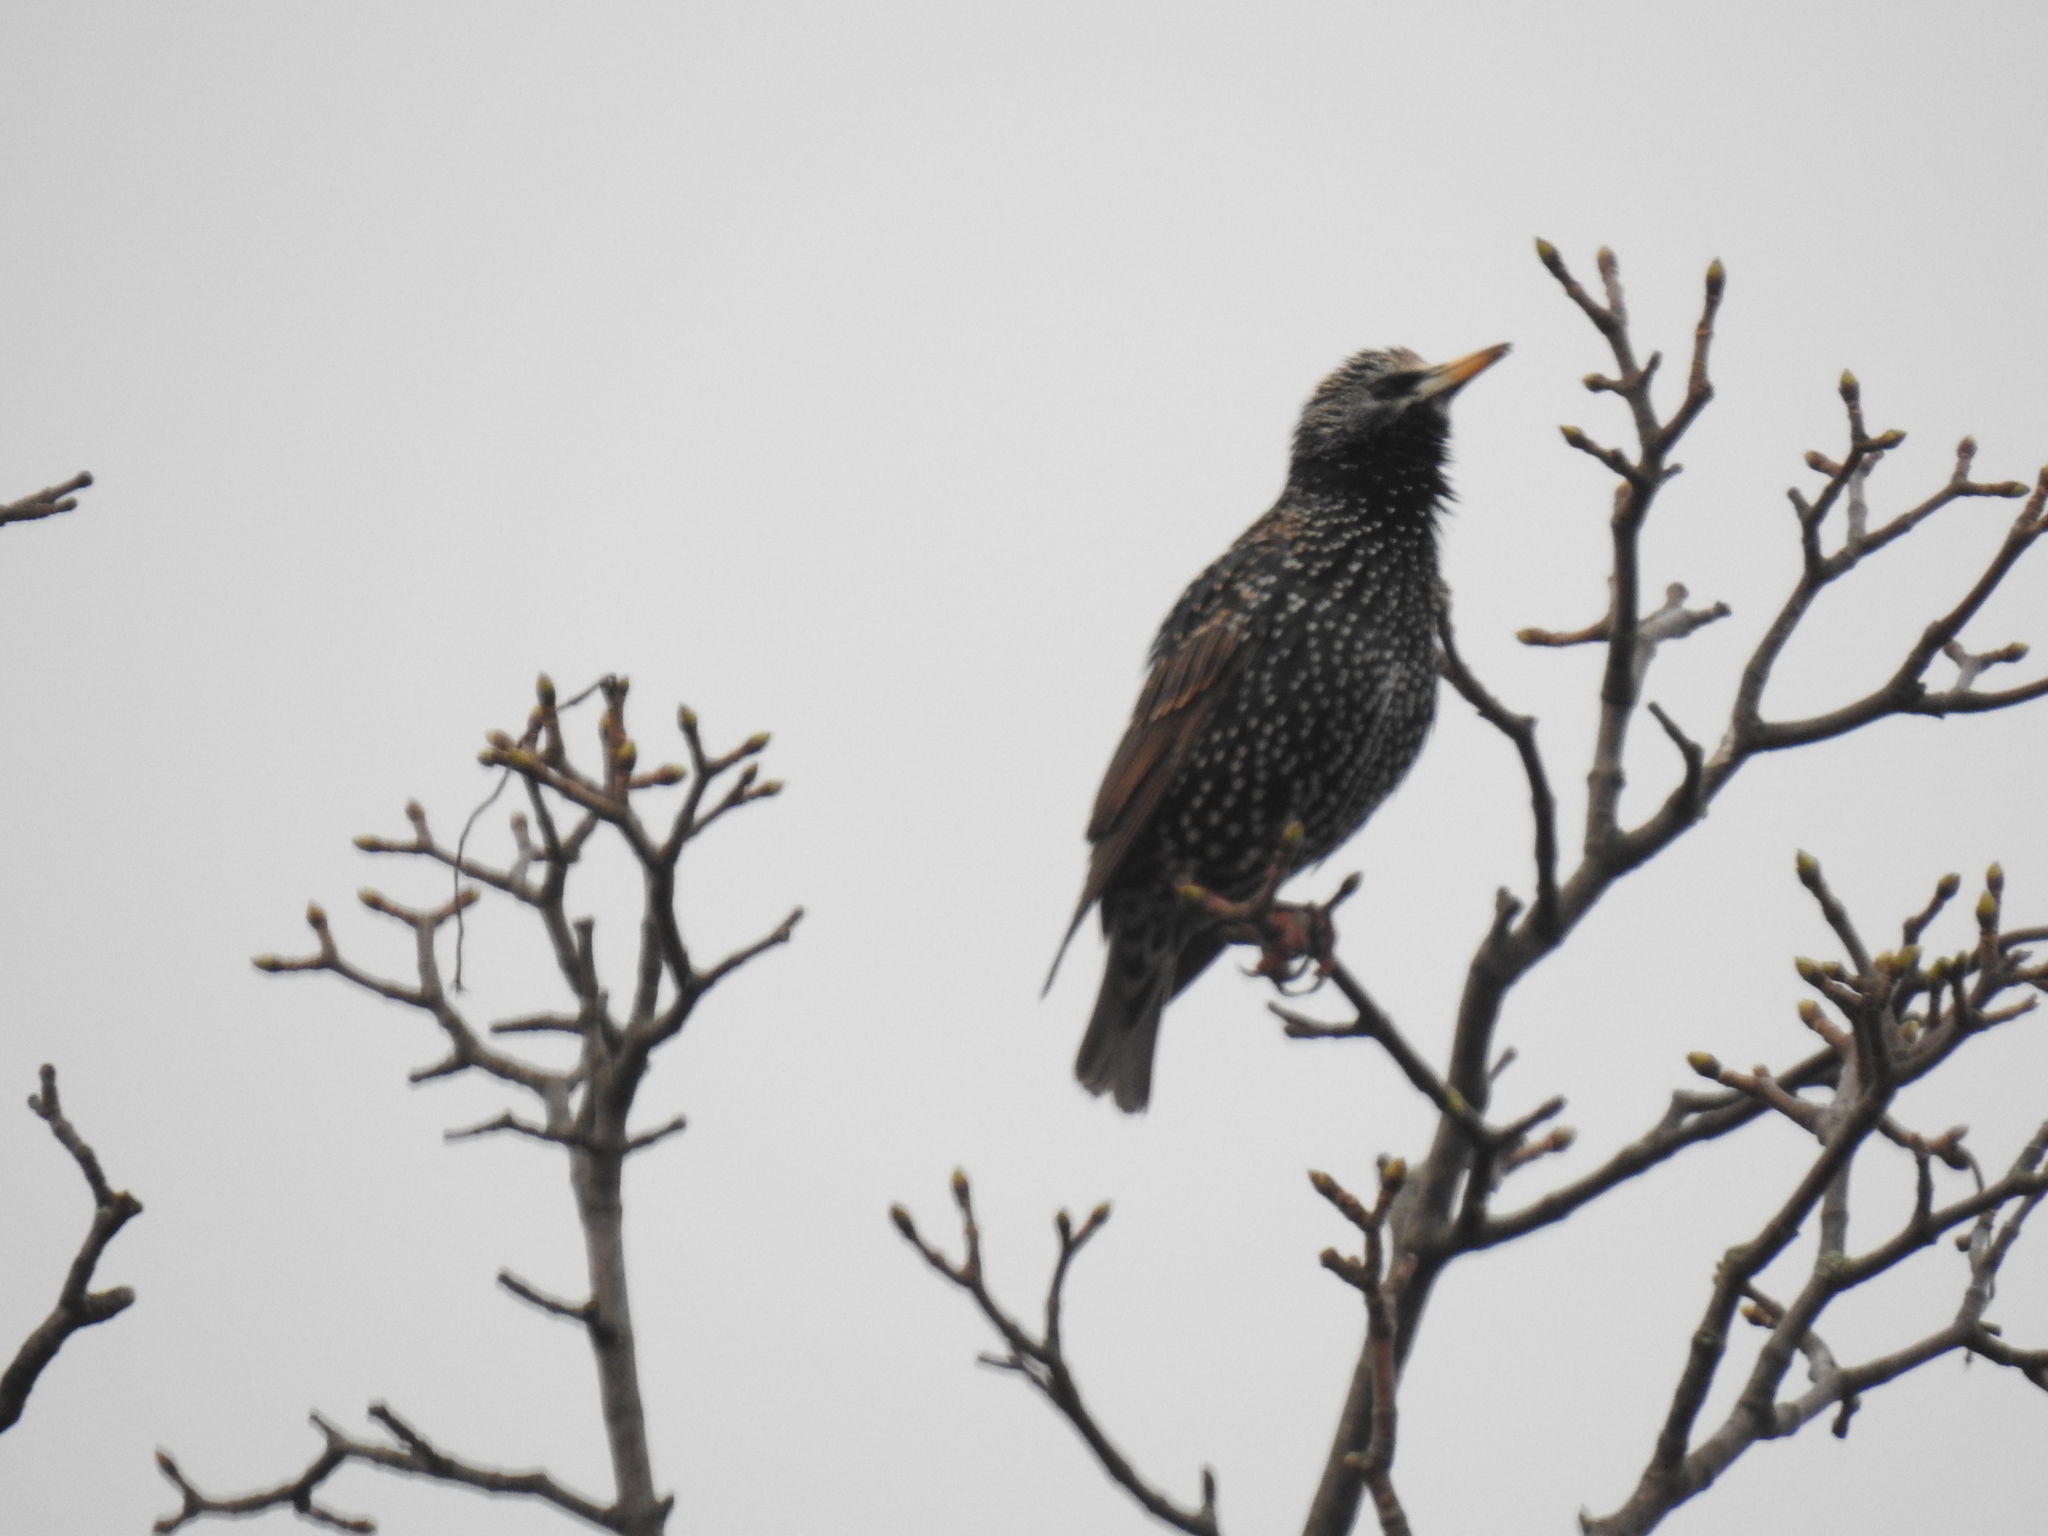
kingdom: Animalia
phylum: Chordata
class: Aves
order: Passeriformes
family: Sturnidae
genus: Sturnus
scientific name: Sturnus vulgaris
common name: Common starling
